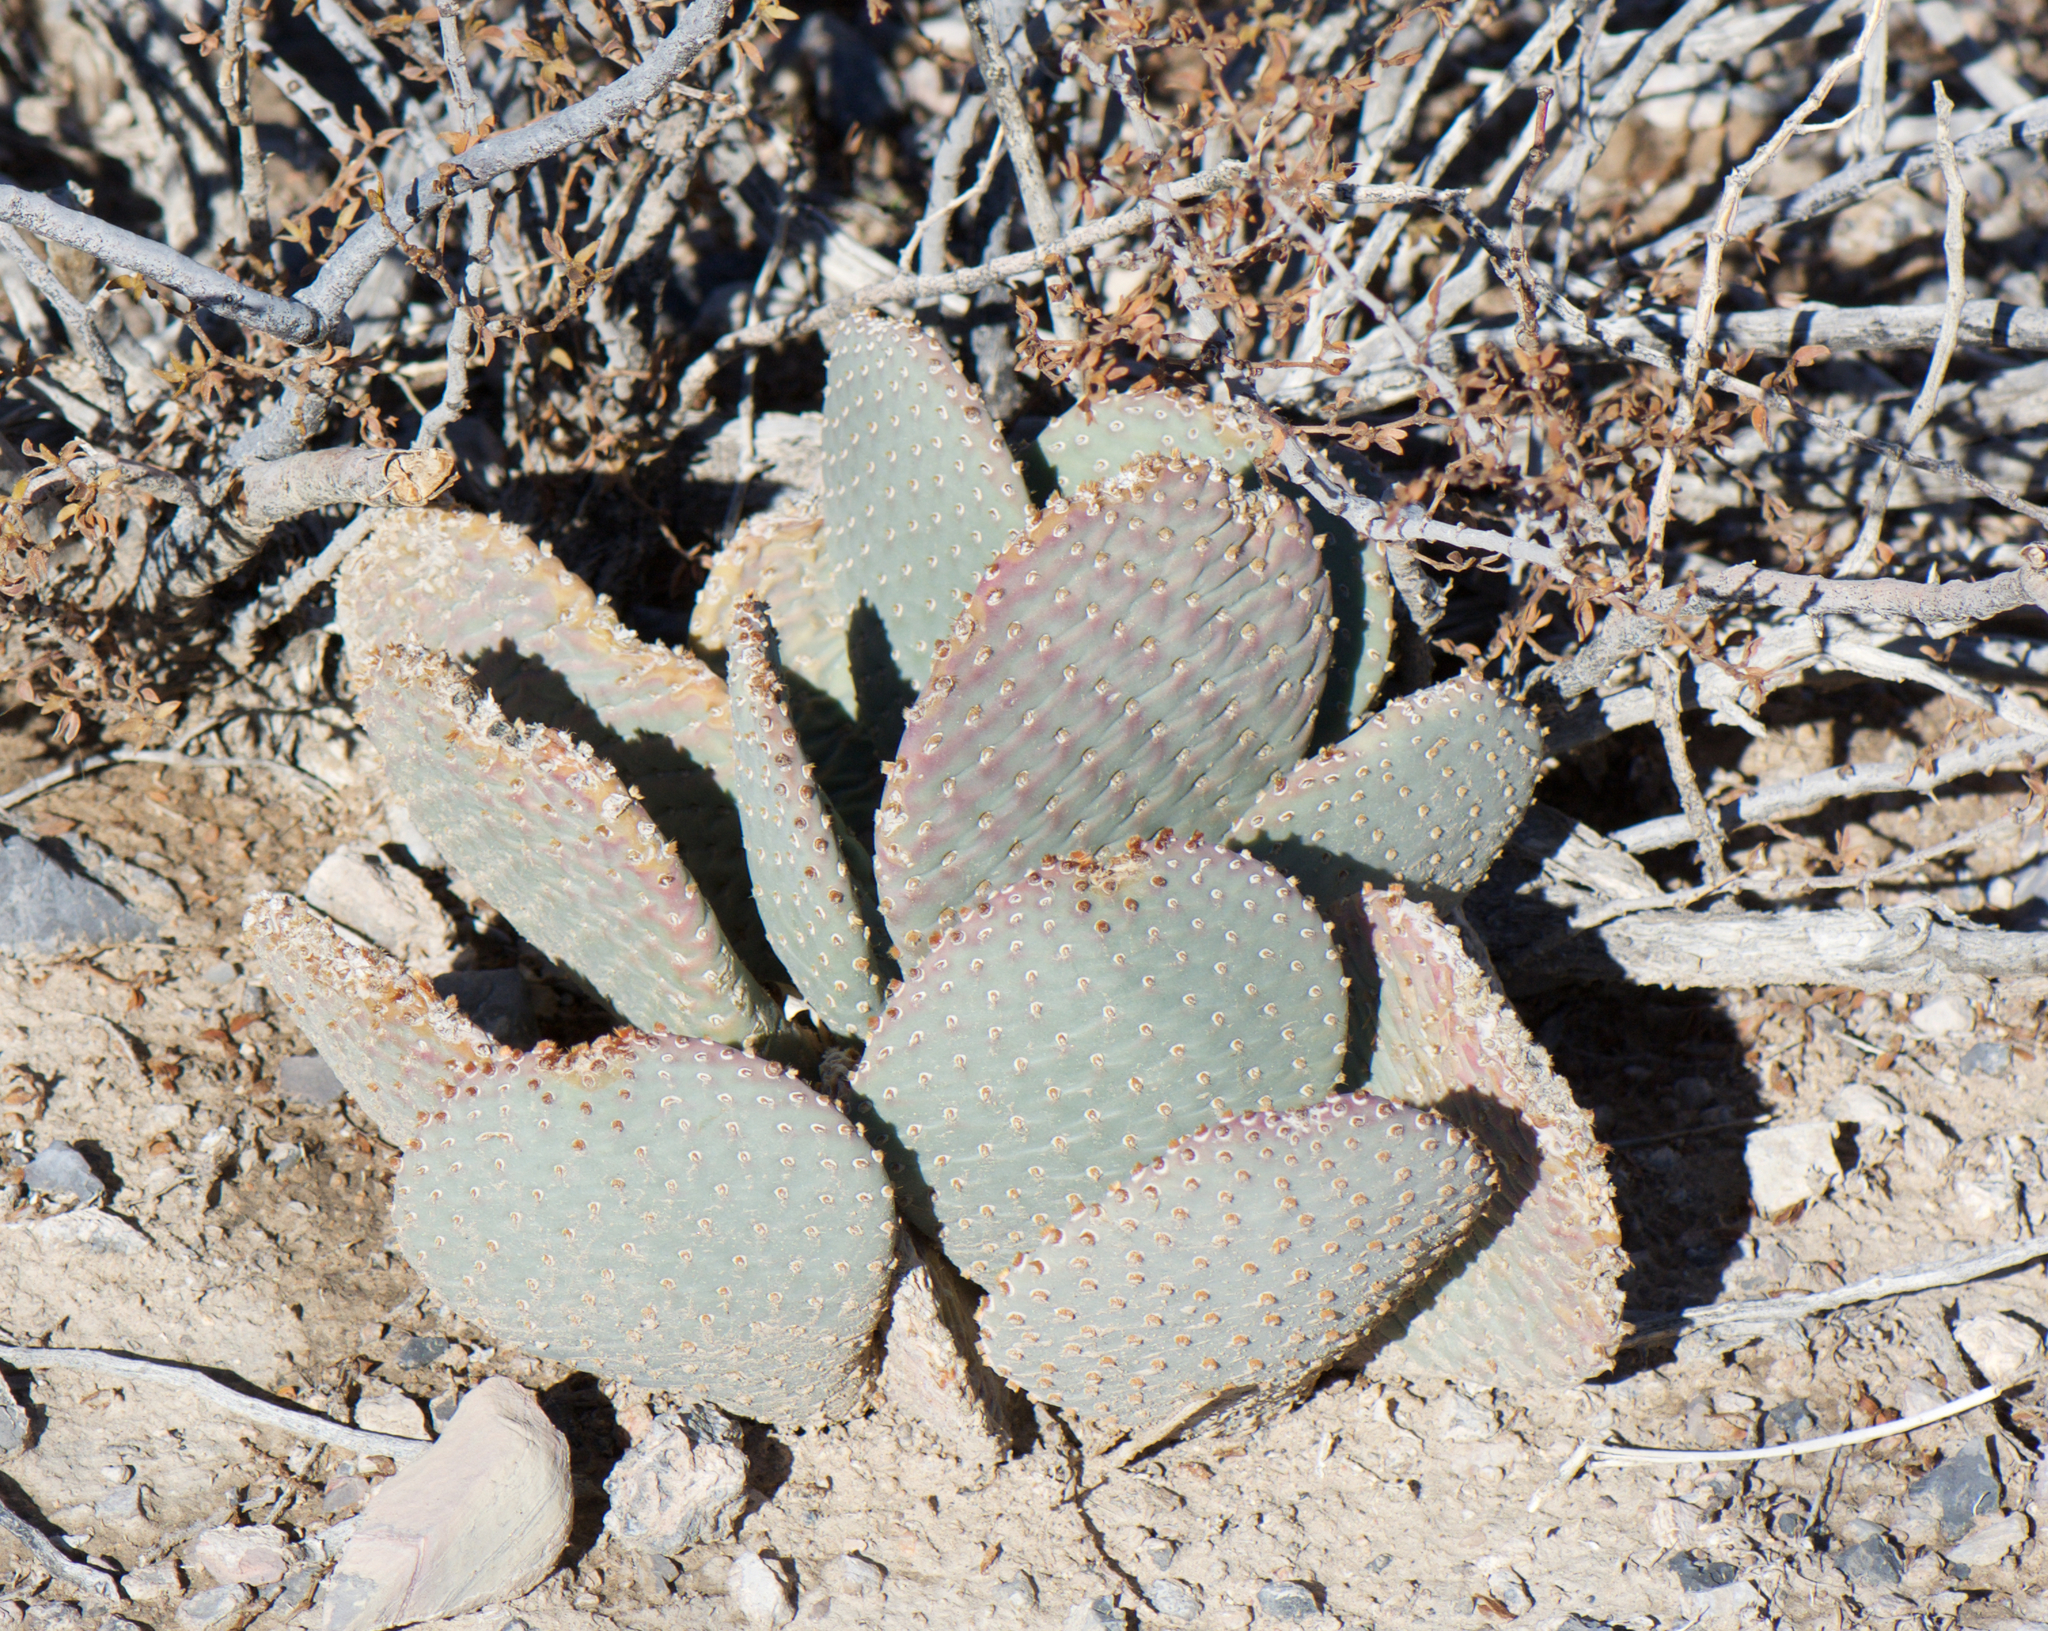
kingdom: Plantae
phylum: Tracheophyta
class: Magnoliopsida
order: Caryophyllales
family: Cactaceae
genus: Opuntia
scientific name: Opuntia basilaris
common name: Beavertail prickly-pear
